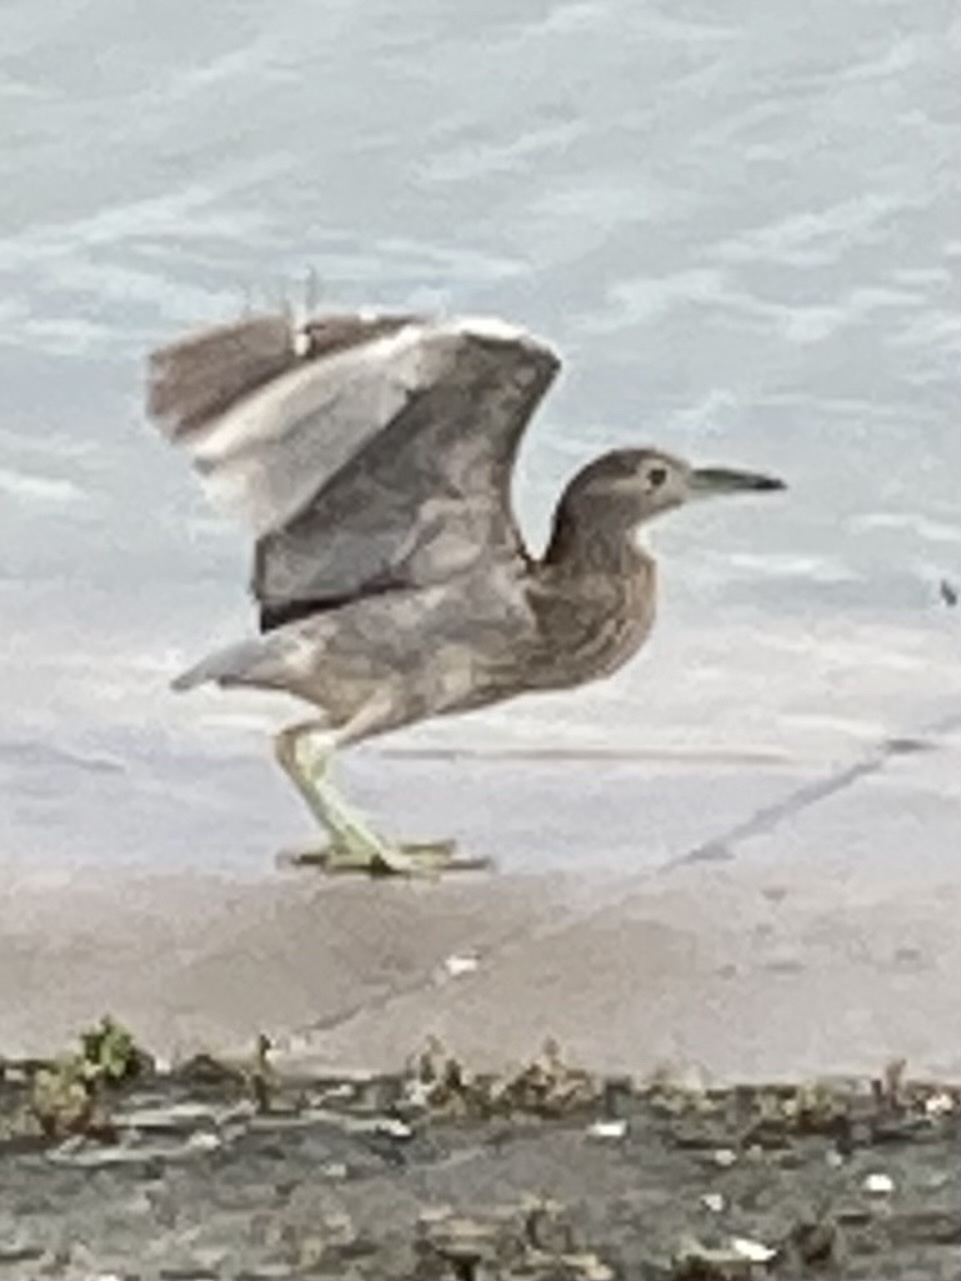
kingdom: Animalia
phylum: Chordata
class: Aves
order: Pelecaniformes
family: Ardeidae
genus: Nycticorax
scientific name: Nycticorax nycticorax
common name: Black-crowned night heron
